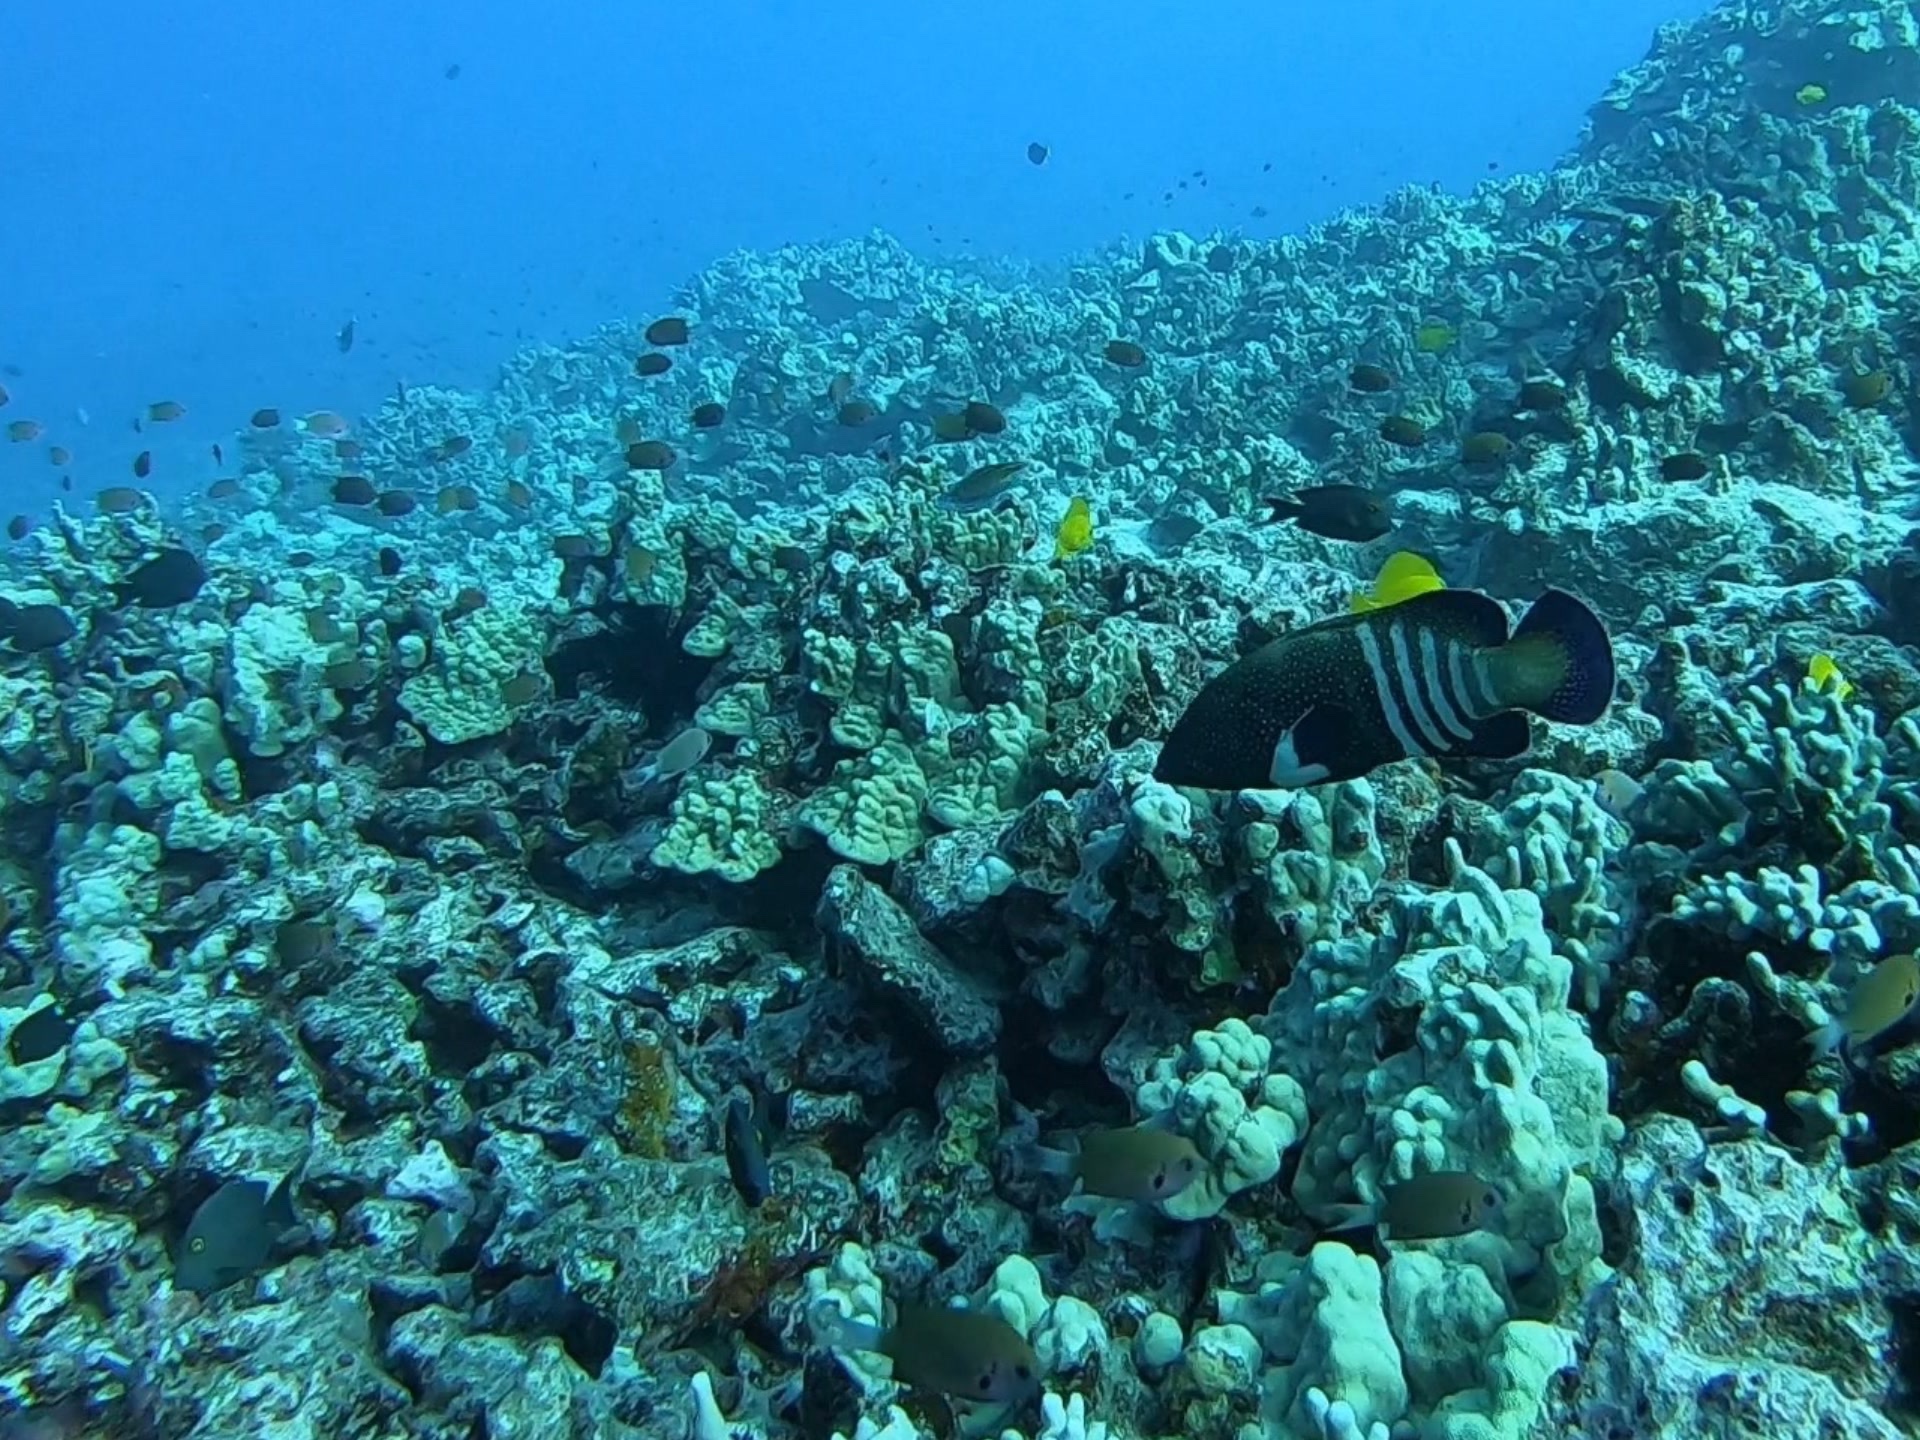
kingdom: Animalia
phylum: Chordata
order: Perciformes
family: Serranidae
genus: Cephalopholis
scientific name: Cephalopholis argus
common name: Peacock grouper
